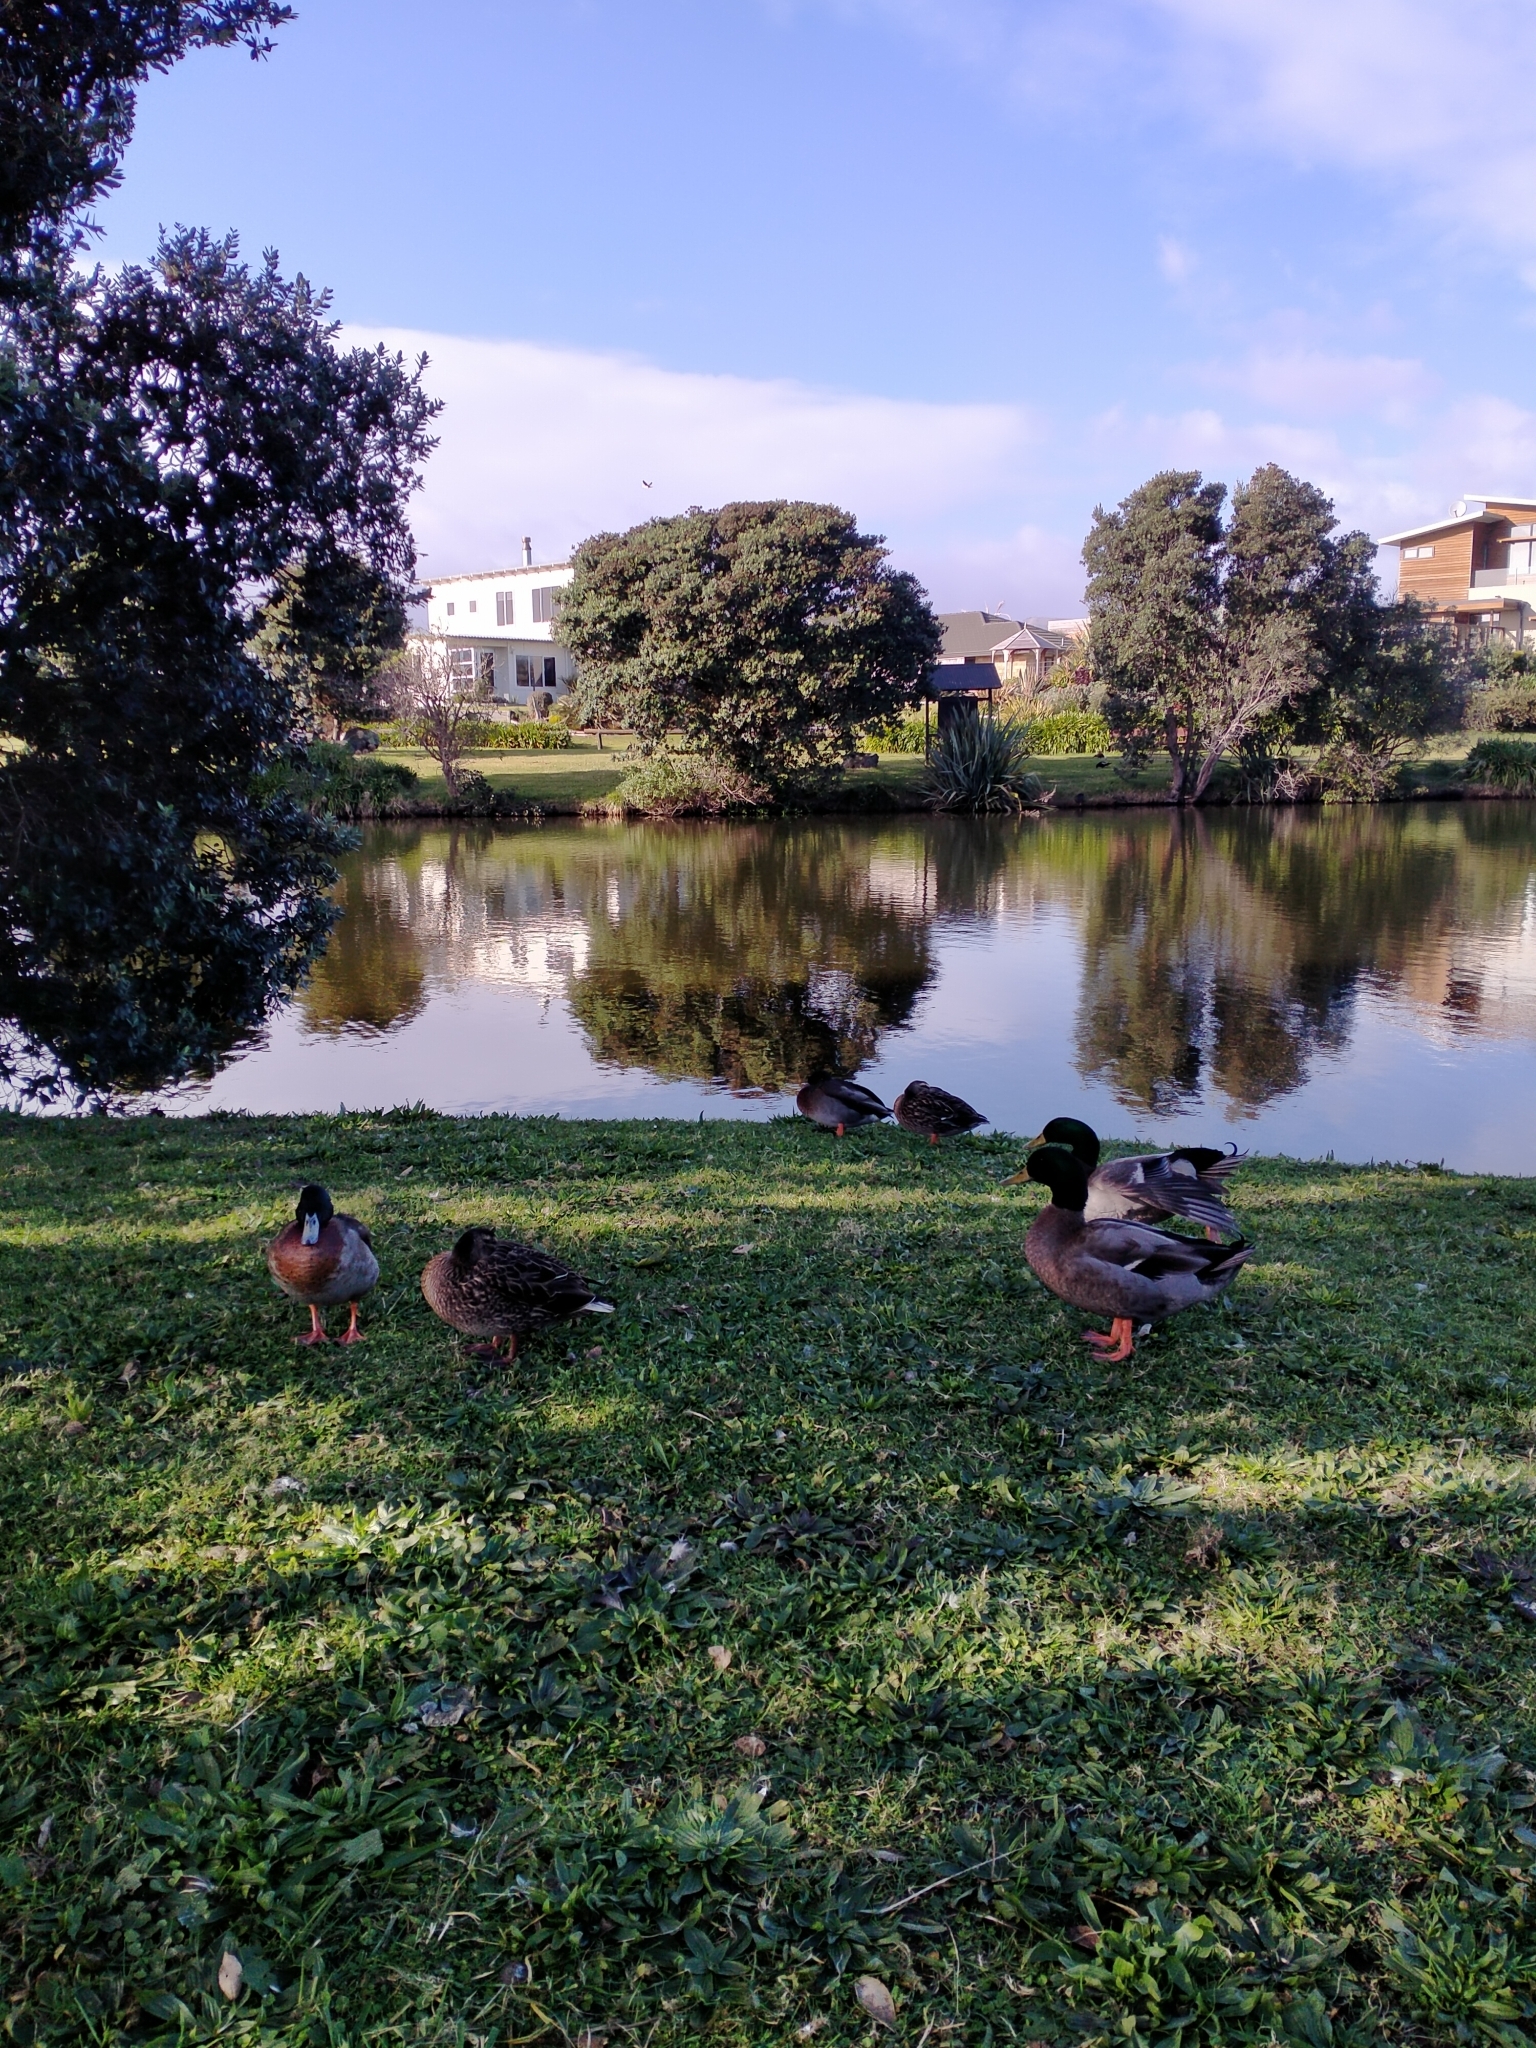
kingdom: Animalia
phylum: Chordata
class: Aves
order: Anseriformes
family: Anatidae
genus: Anas
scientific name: Anas platyrhynchos
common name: Mallard
